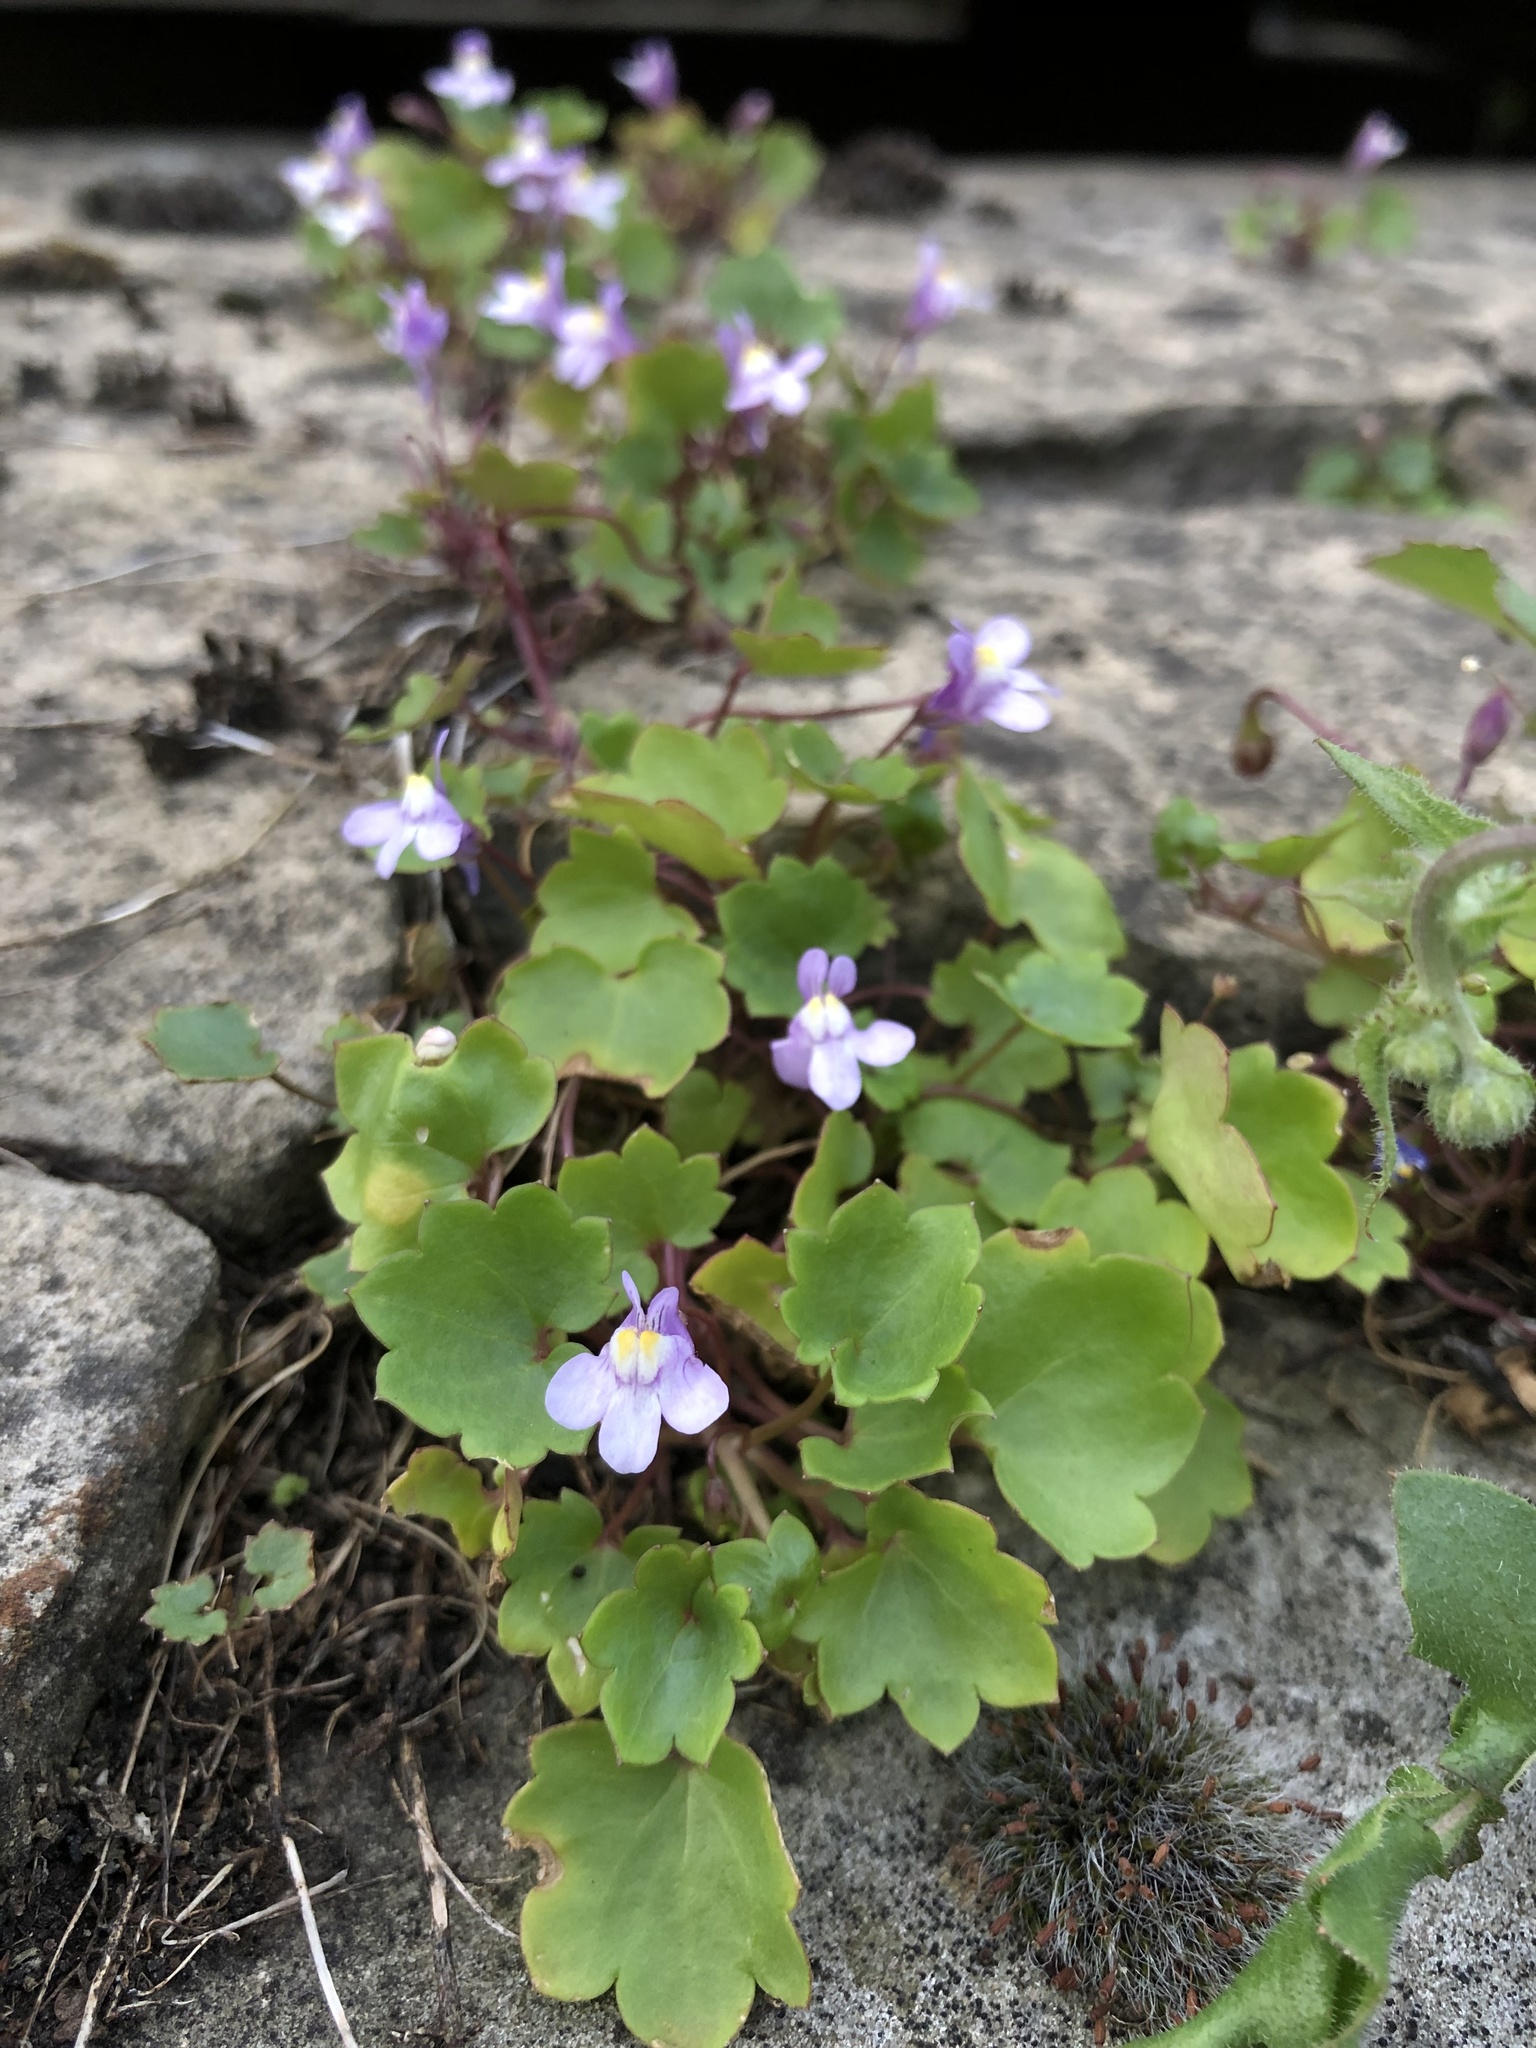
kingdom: Plantae
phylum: Tracheophyta
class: Magnoliopsida
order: Lamiales
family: Plantaginaceae
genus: Cymbalaria
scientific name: Cymbalaria muralis
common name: Ivy-leaved toadflax
